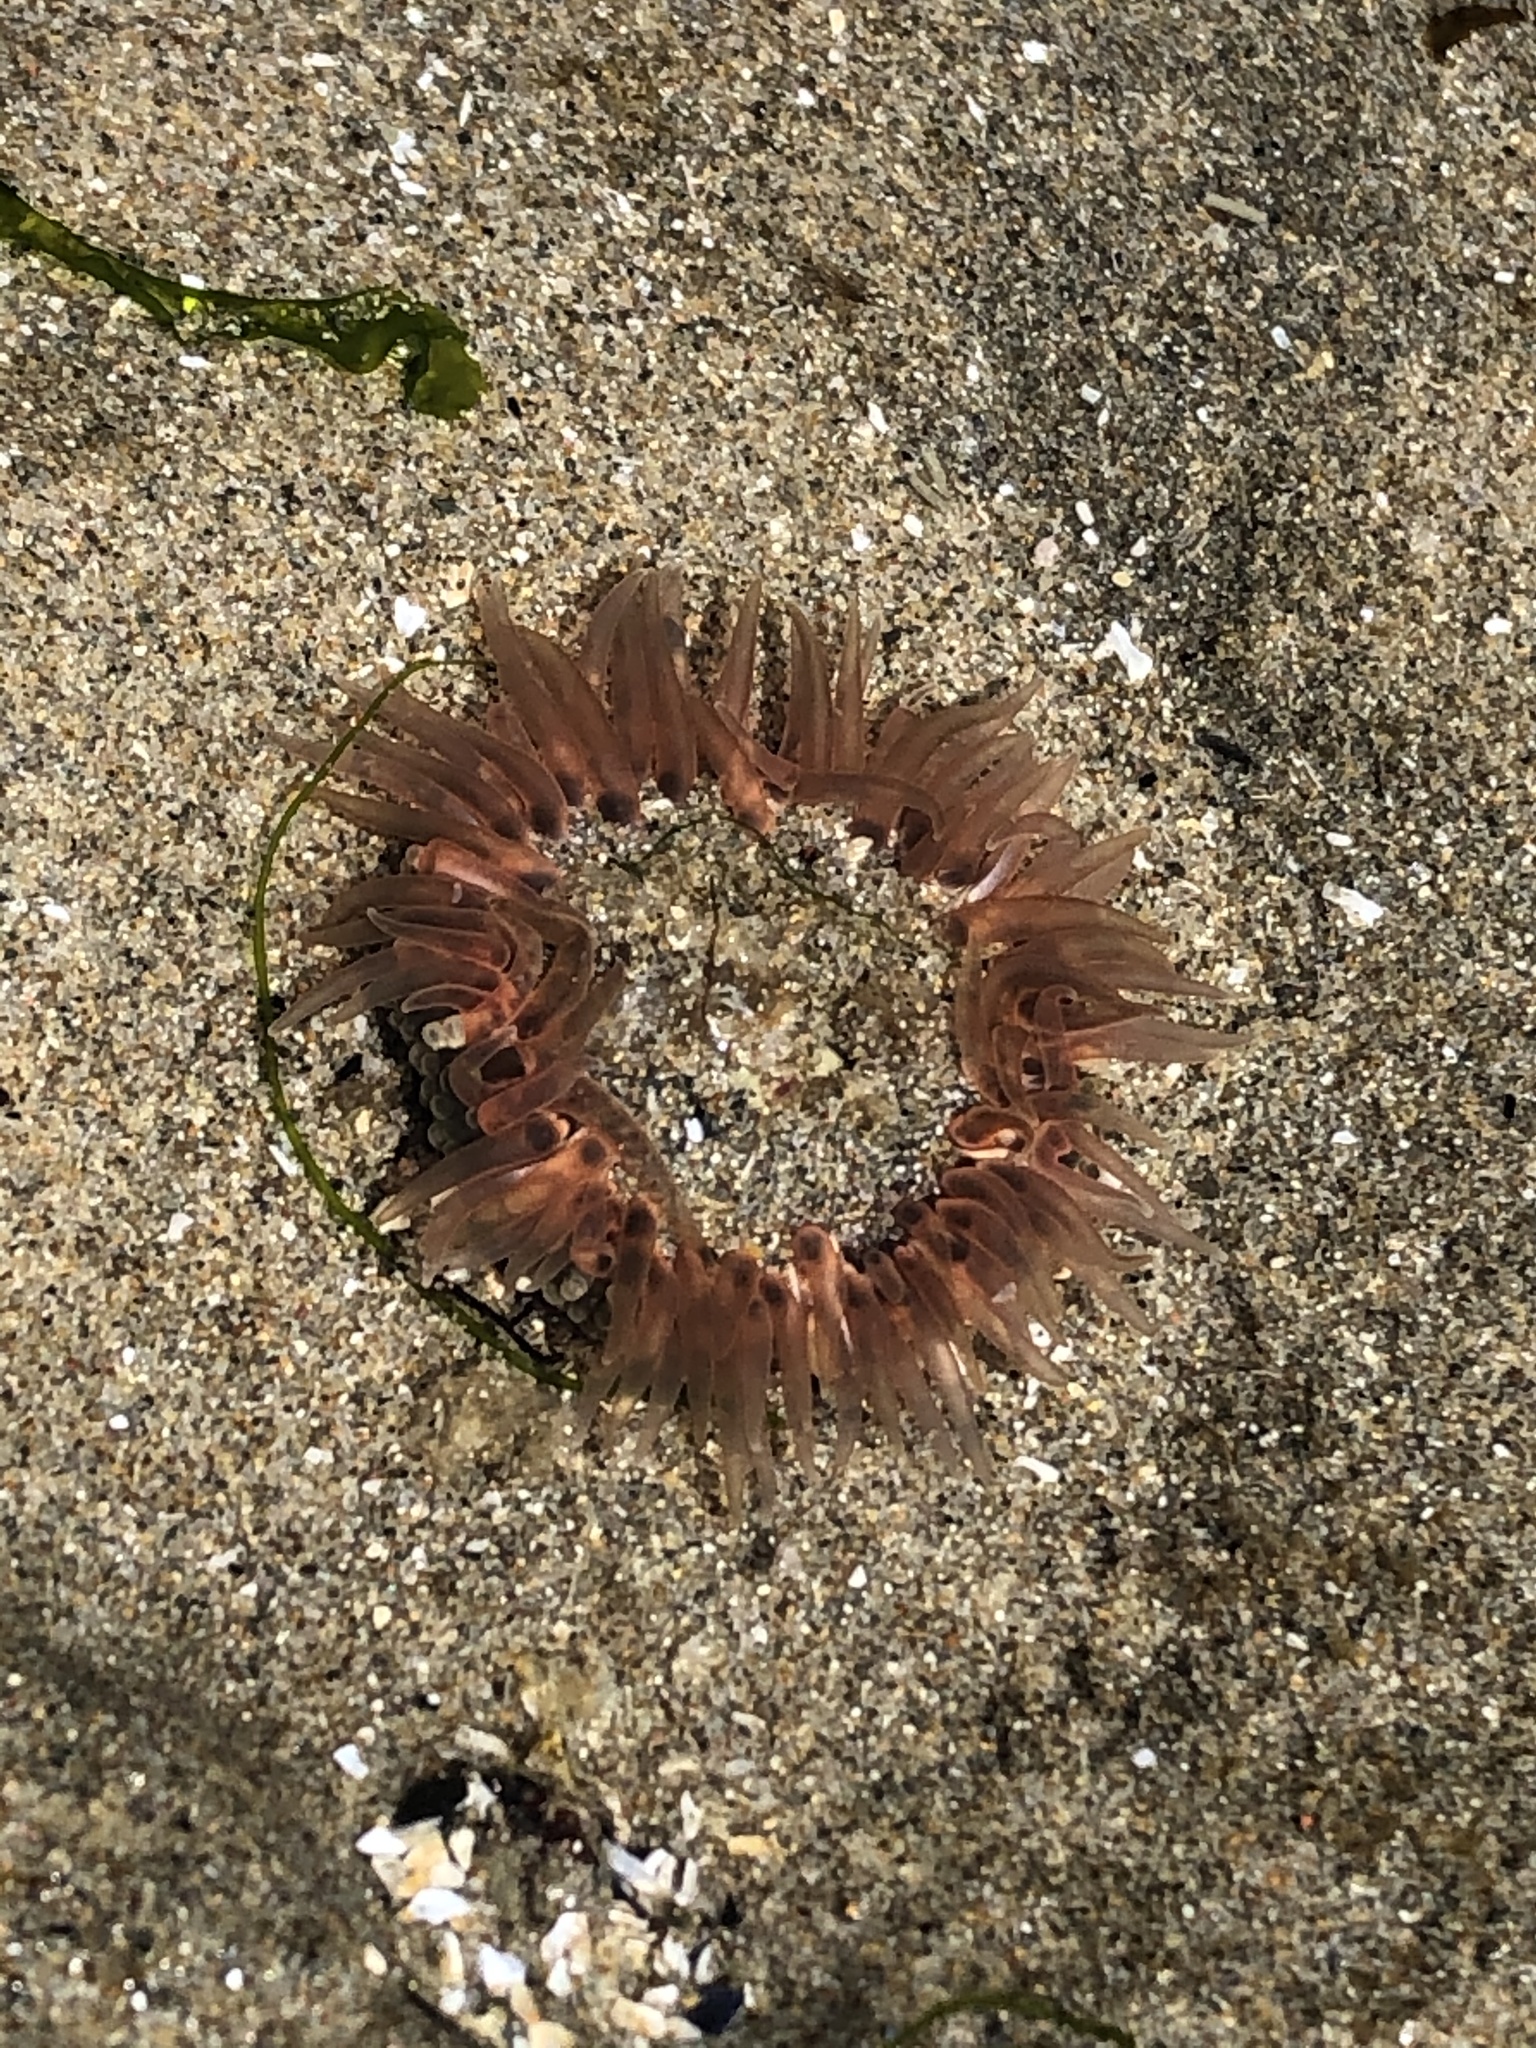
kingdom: Animalia
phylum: Cnidaria
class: Anthozoa
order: Actiniaria
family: Actiniidae
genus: Anthopleura
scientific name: Anthopleura artemisia
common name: Buried sea anemone
